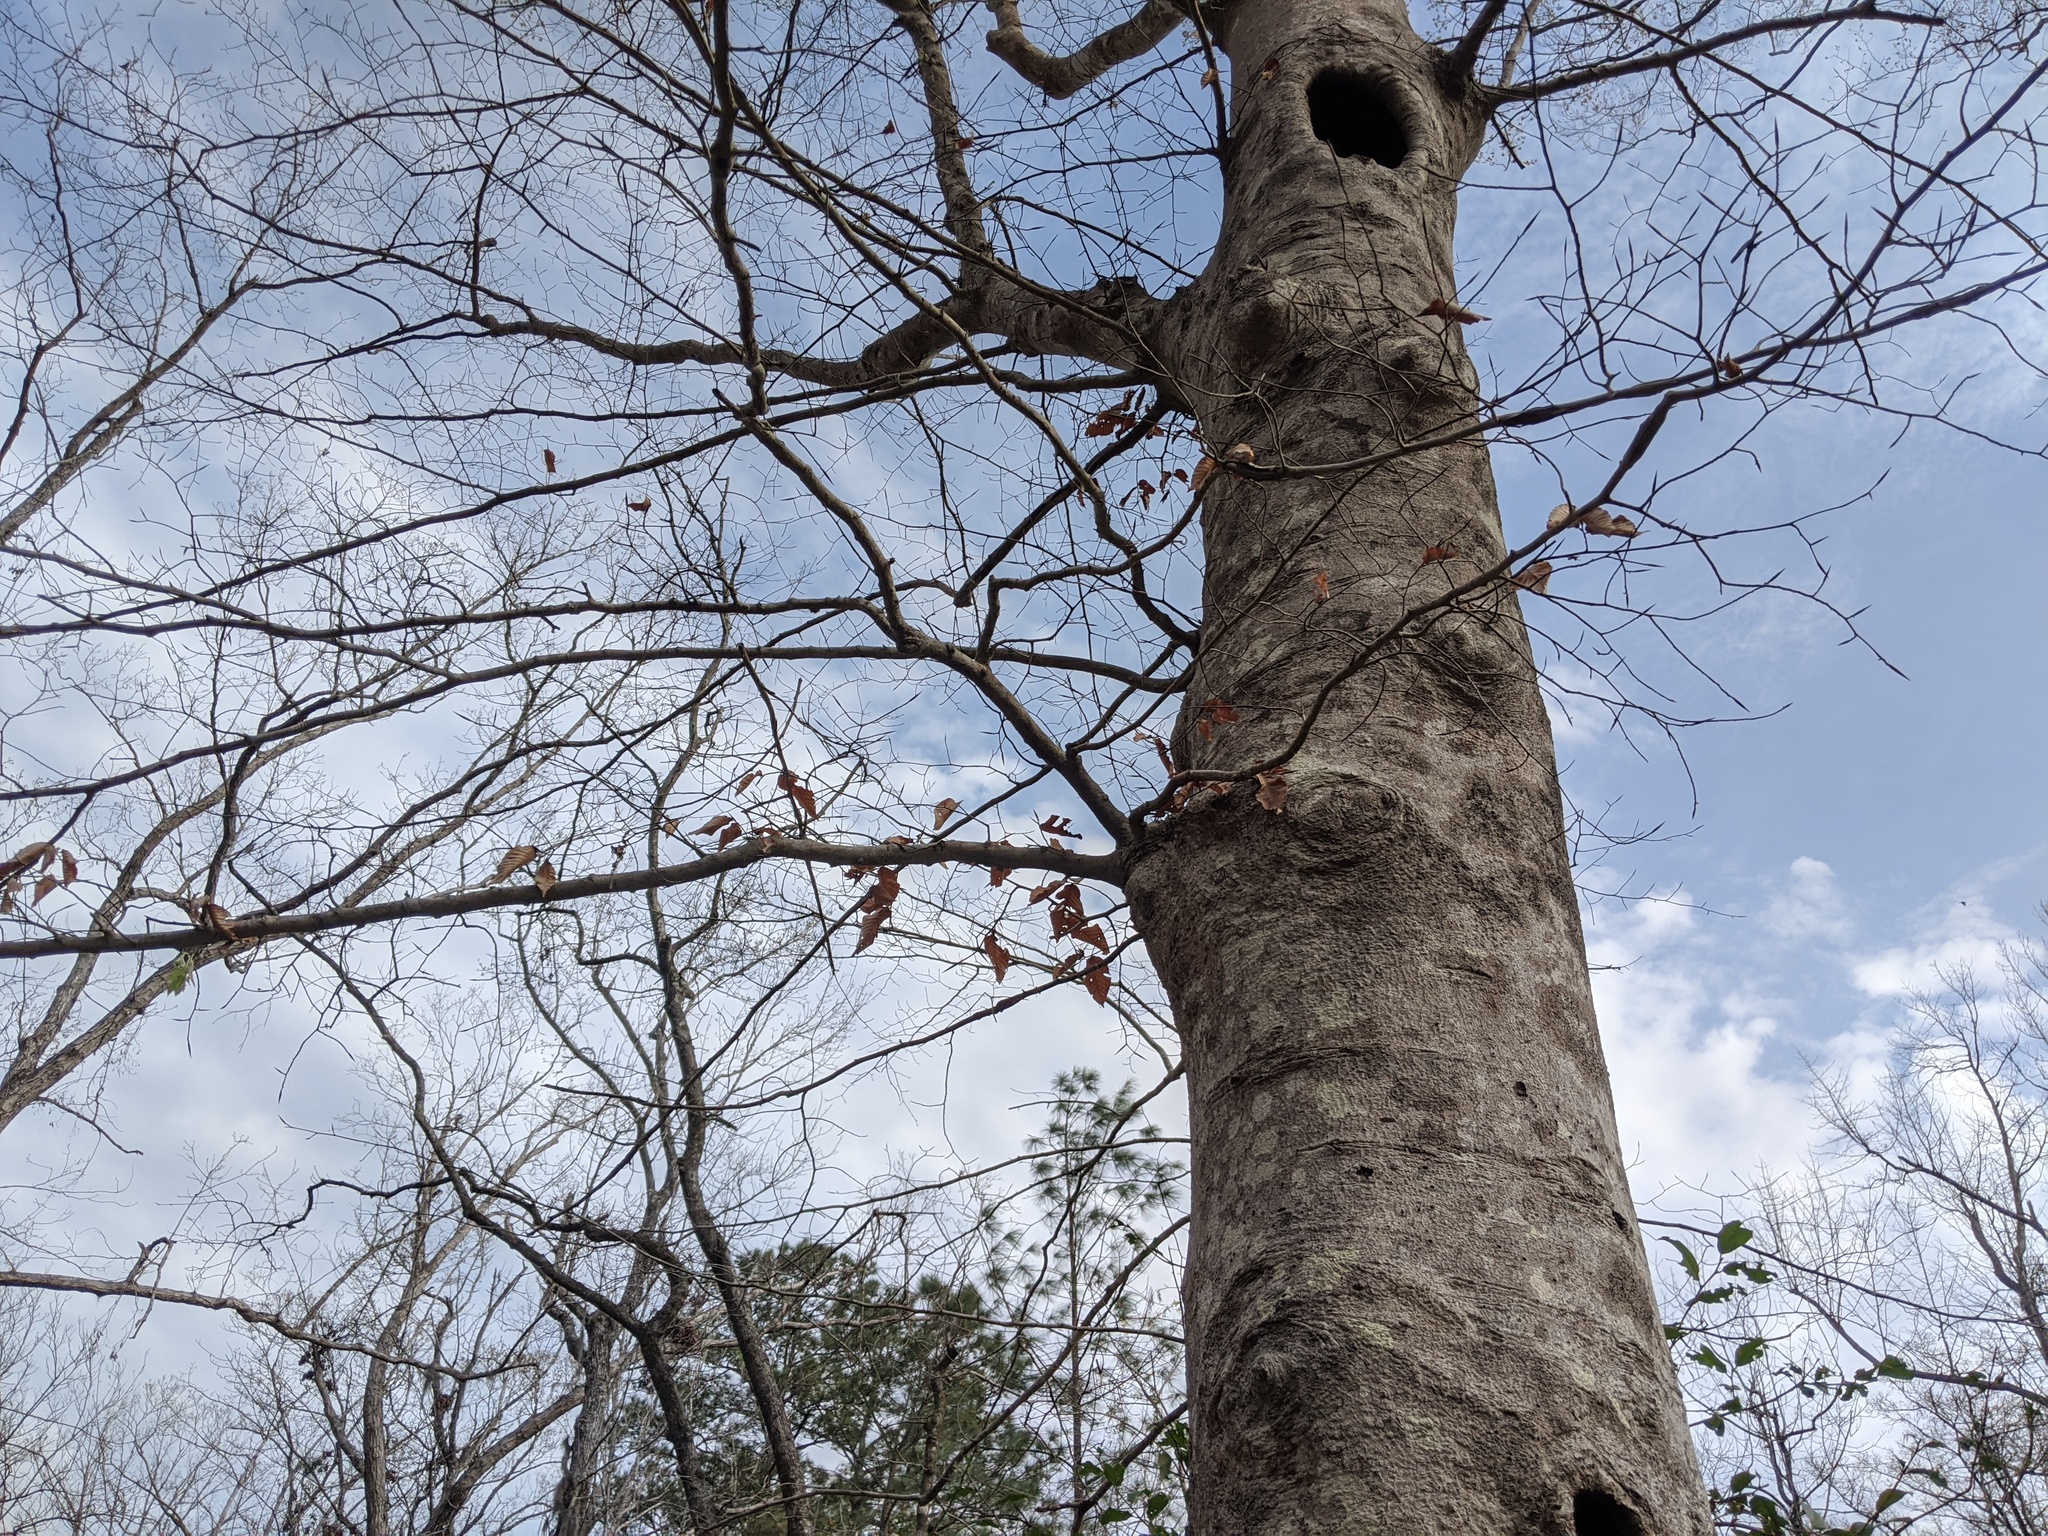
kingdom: Plantae
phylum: Tracheophyta
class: Magnoliopsida
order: Fagales
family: Fagaceae
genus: Fagus
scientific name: Fagus grandifolia
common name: American beech
